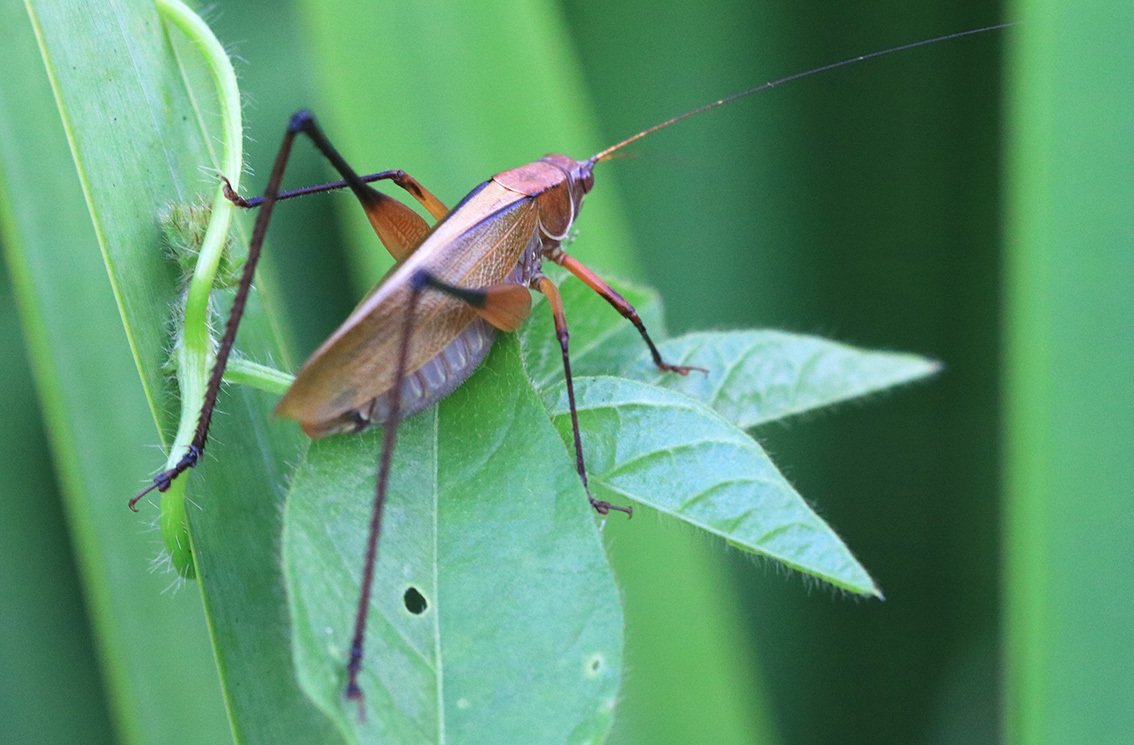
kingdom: Animalia
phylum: Arthropoda
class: Insecta
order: Orthoptera
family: Tettigoniidae
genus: Theudoria
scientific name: Theudoria melanocnemis
